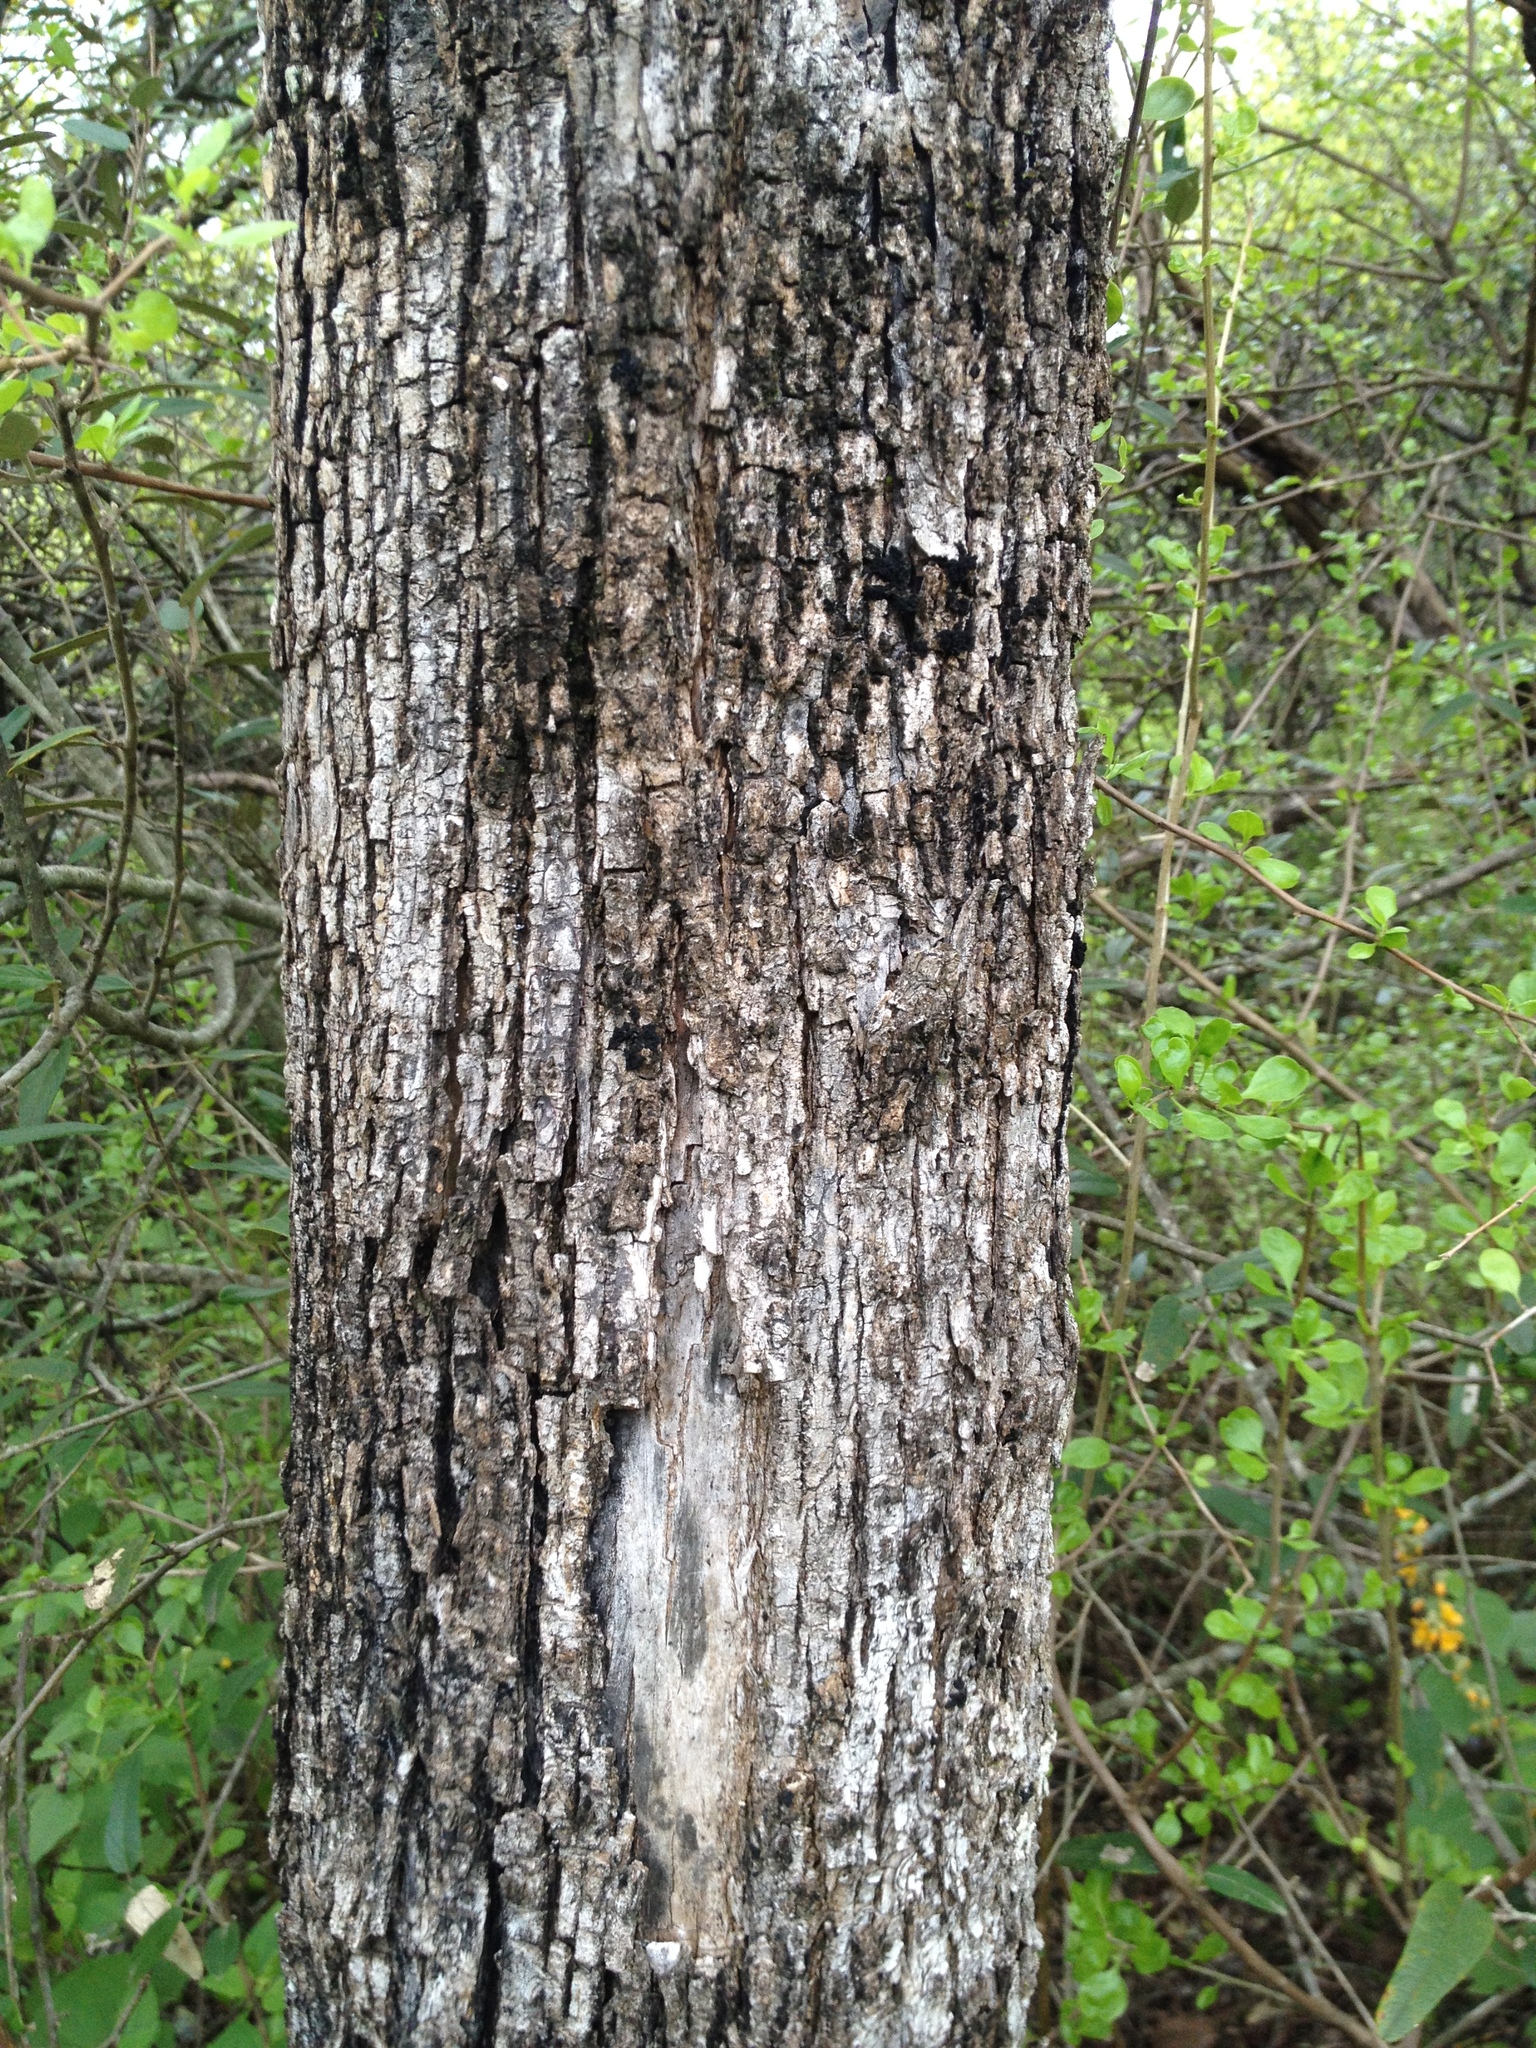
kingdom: Plantae
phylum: Tracheophyta
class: Magnoliopsida
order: Lamiales
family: Bignoniaceae
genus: Tabebuia
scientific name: Tabebuia nodosa
